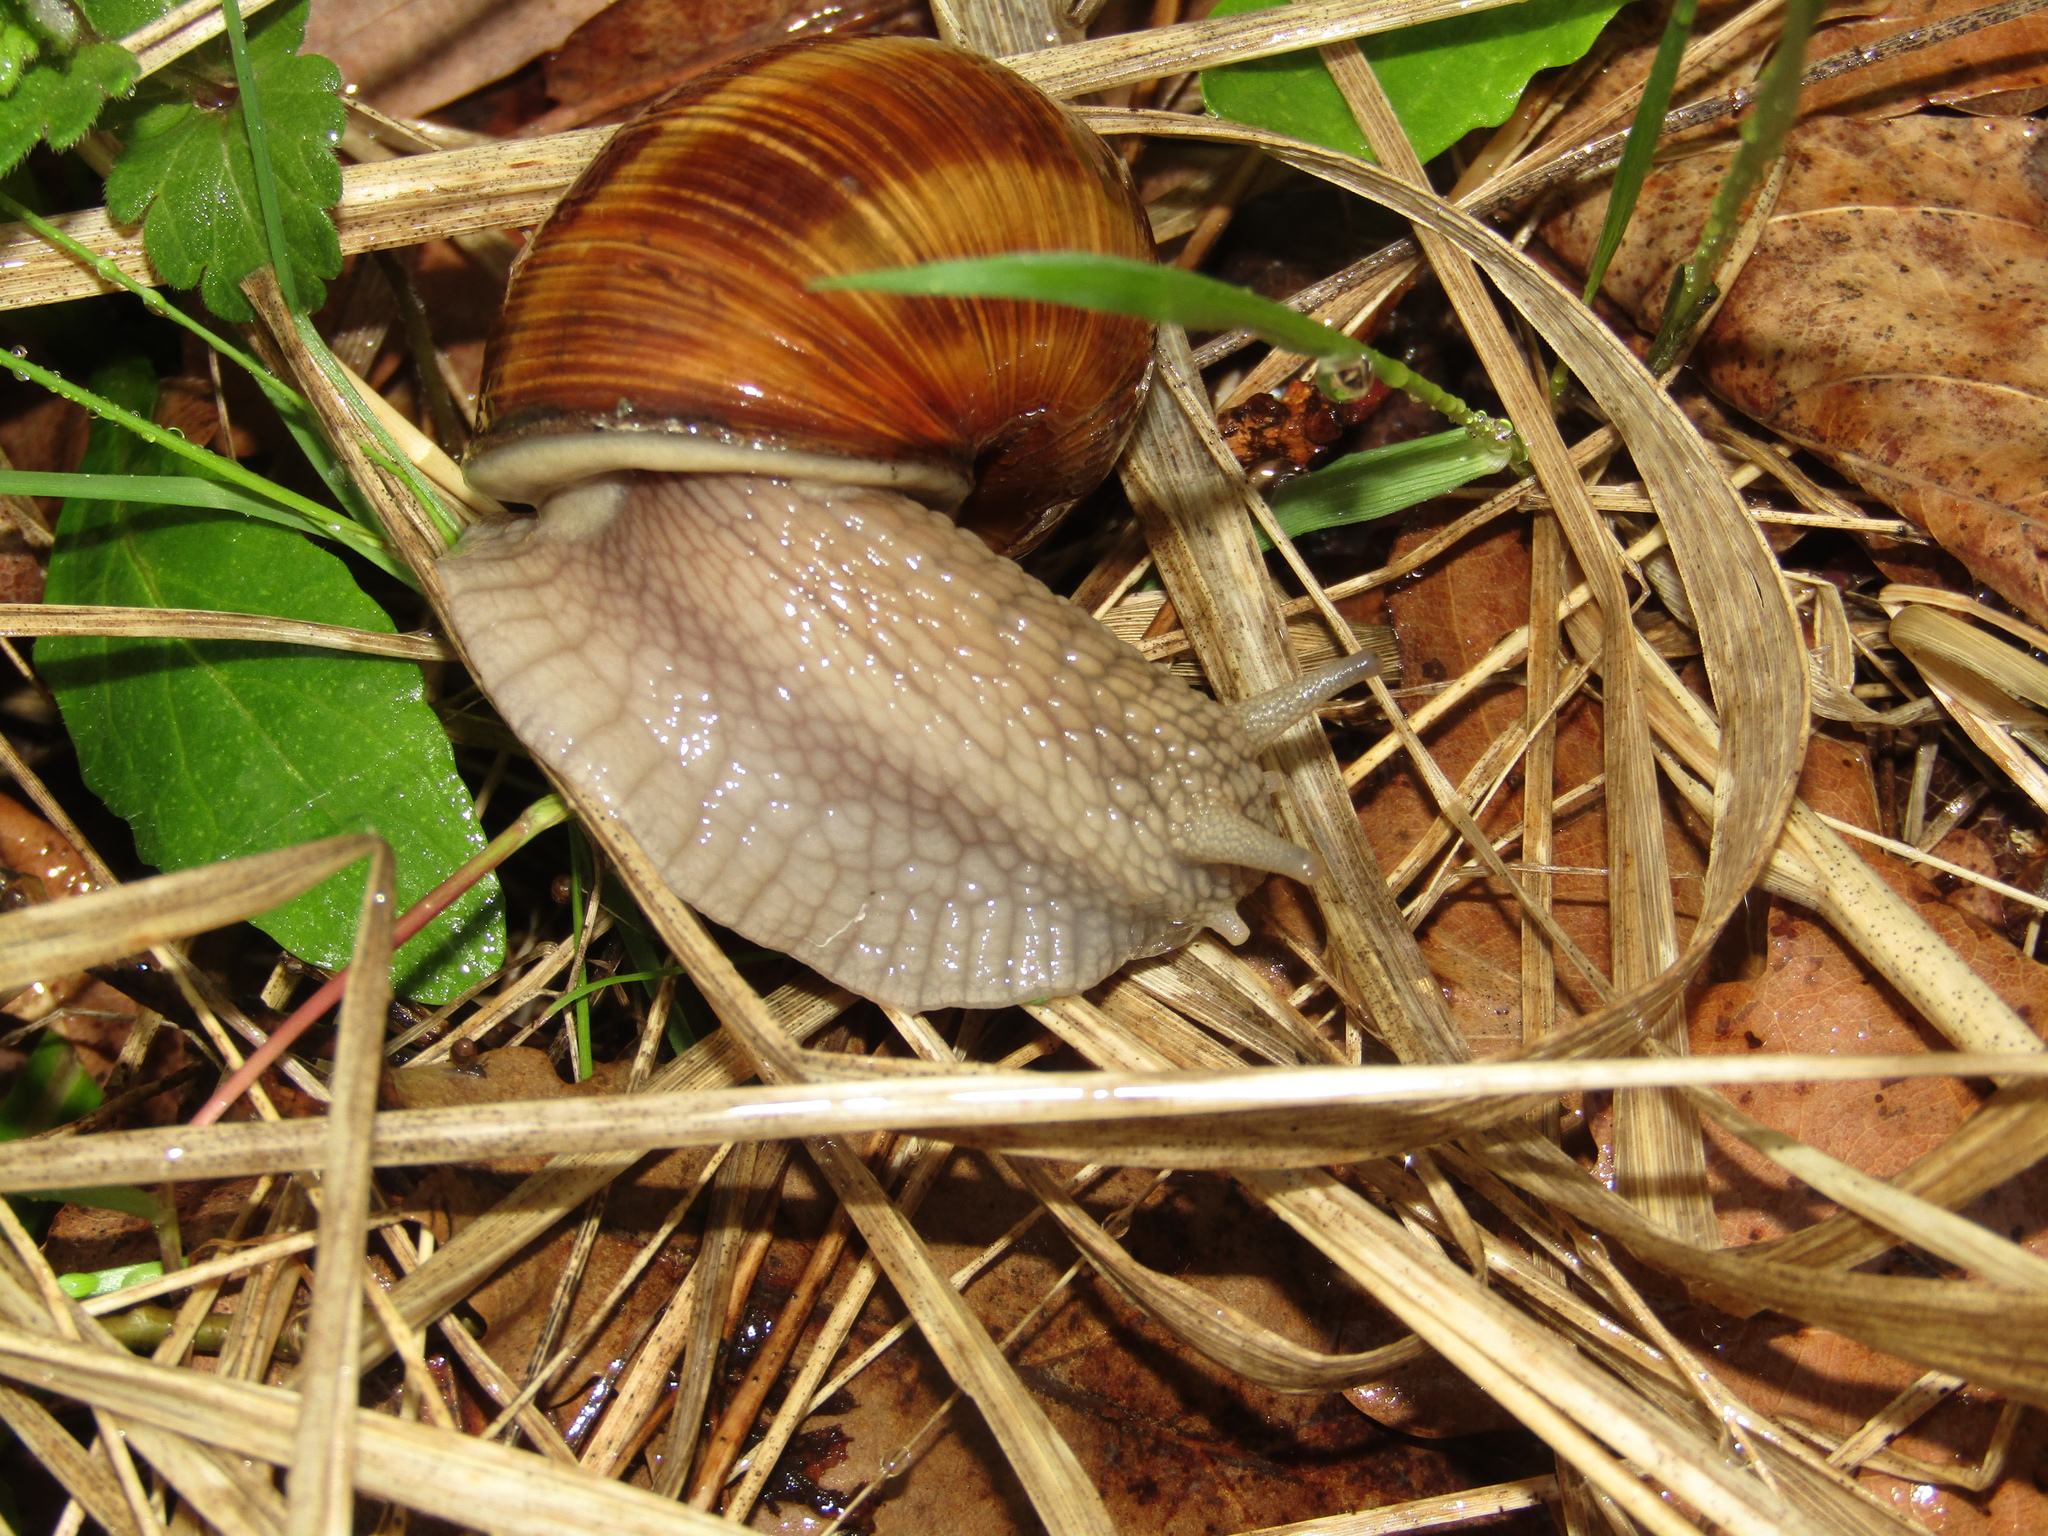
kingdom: Animalia
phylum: Mollusca
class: Gastropoda
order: Stylommatophora
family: Helicidae
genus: Helix
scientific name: Helix pomatia
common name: Roman snail
